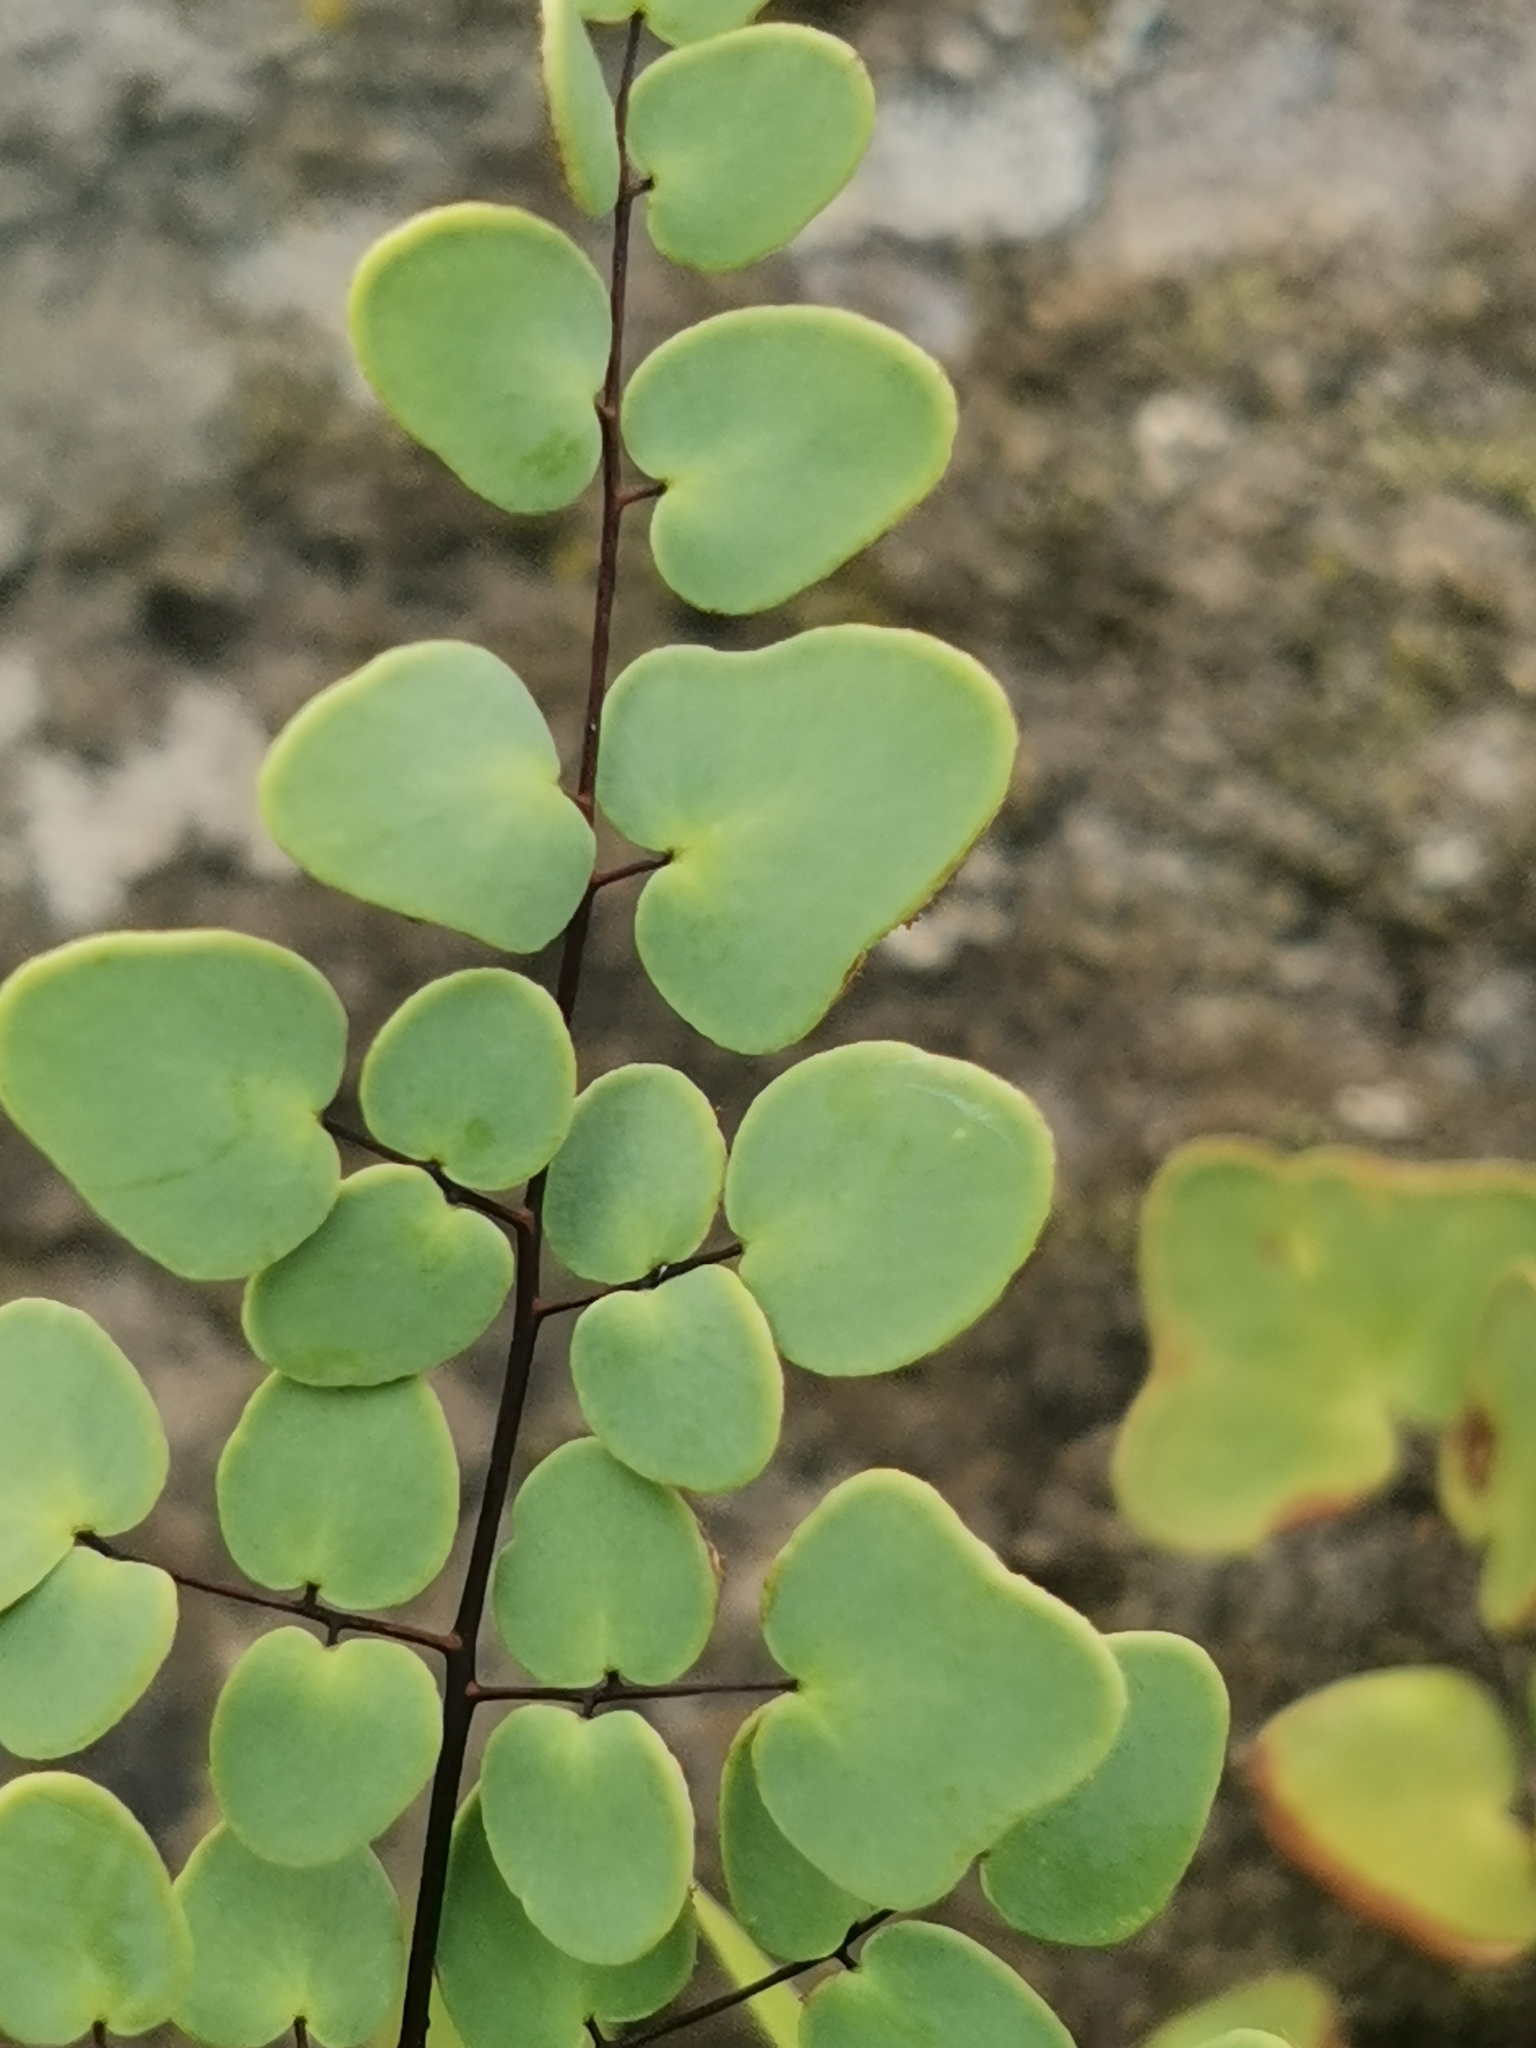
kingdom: Plantae
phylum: Tracheophyta
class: Polypodiopsida
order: Polypodiales
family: Pteridaceae
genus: Pellaea
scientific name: Pellaea calomelanos
